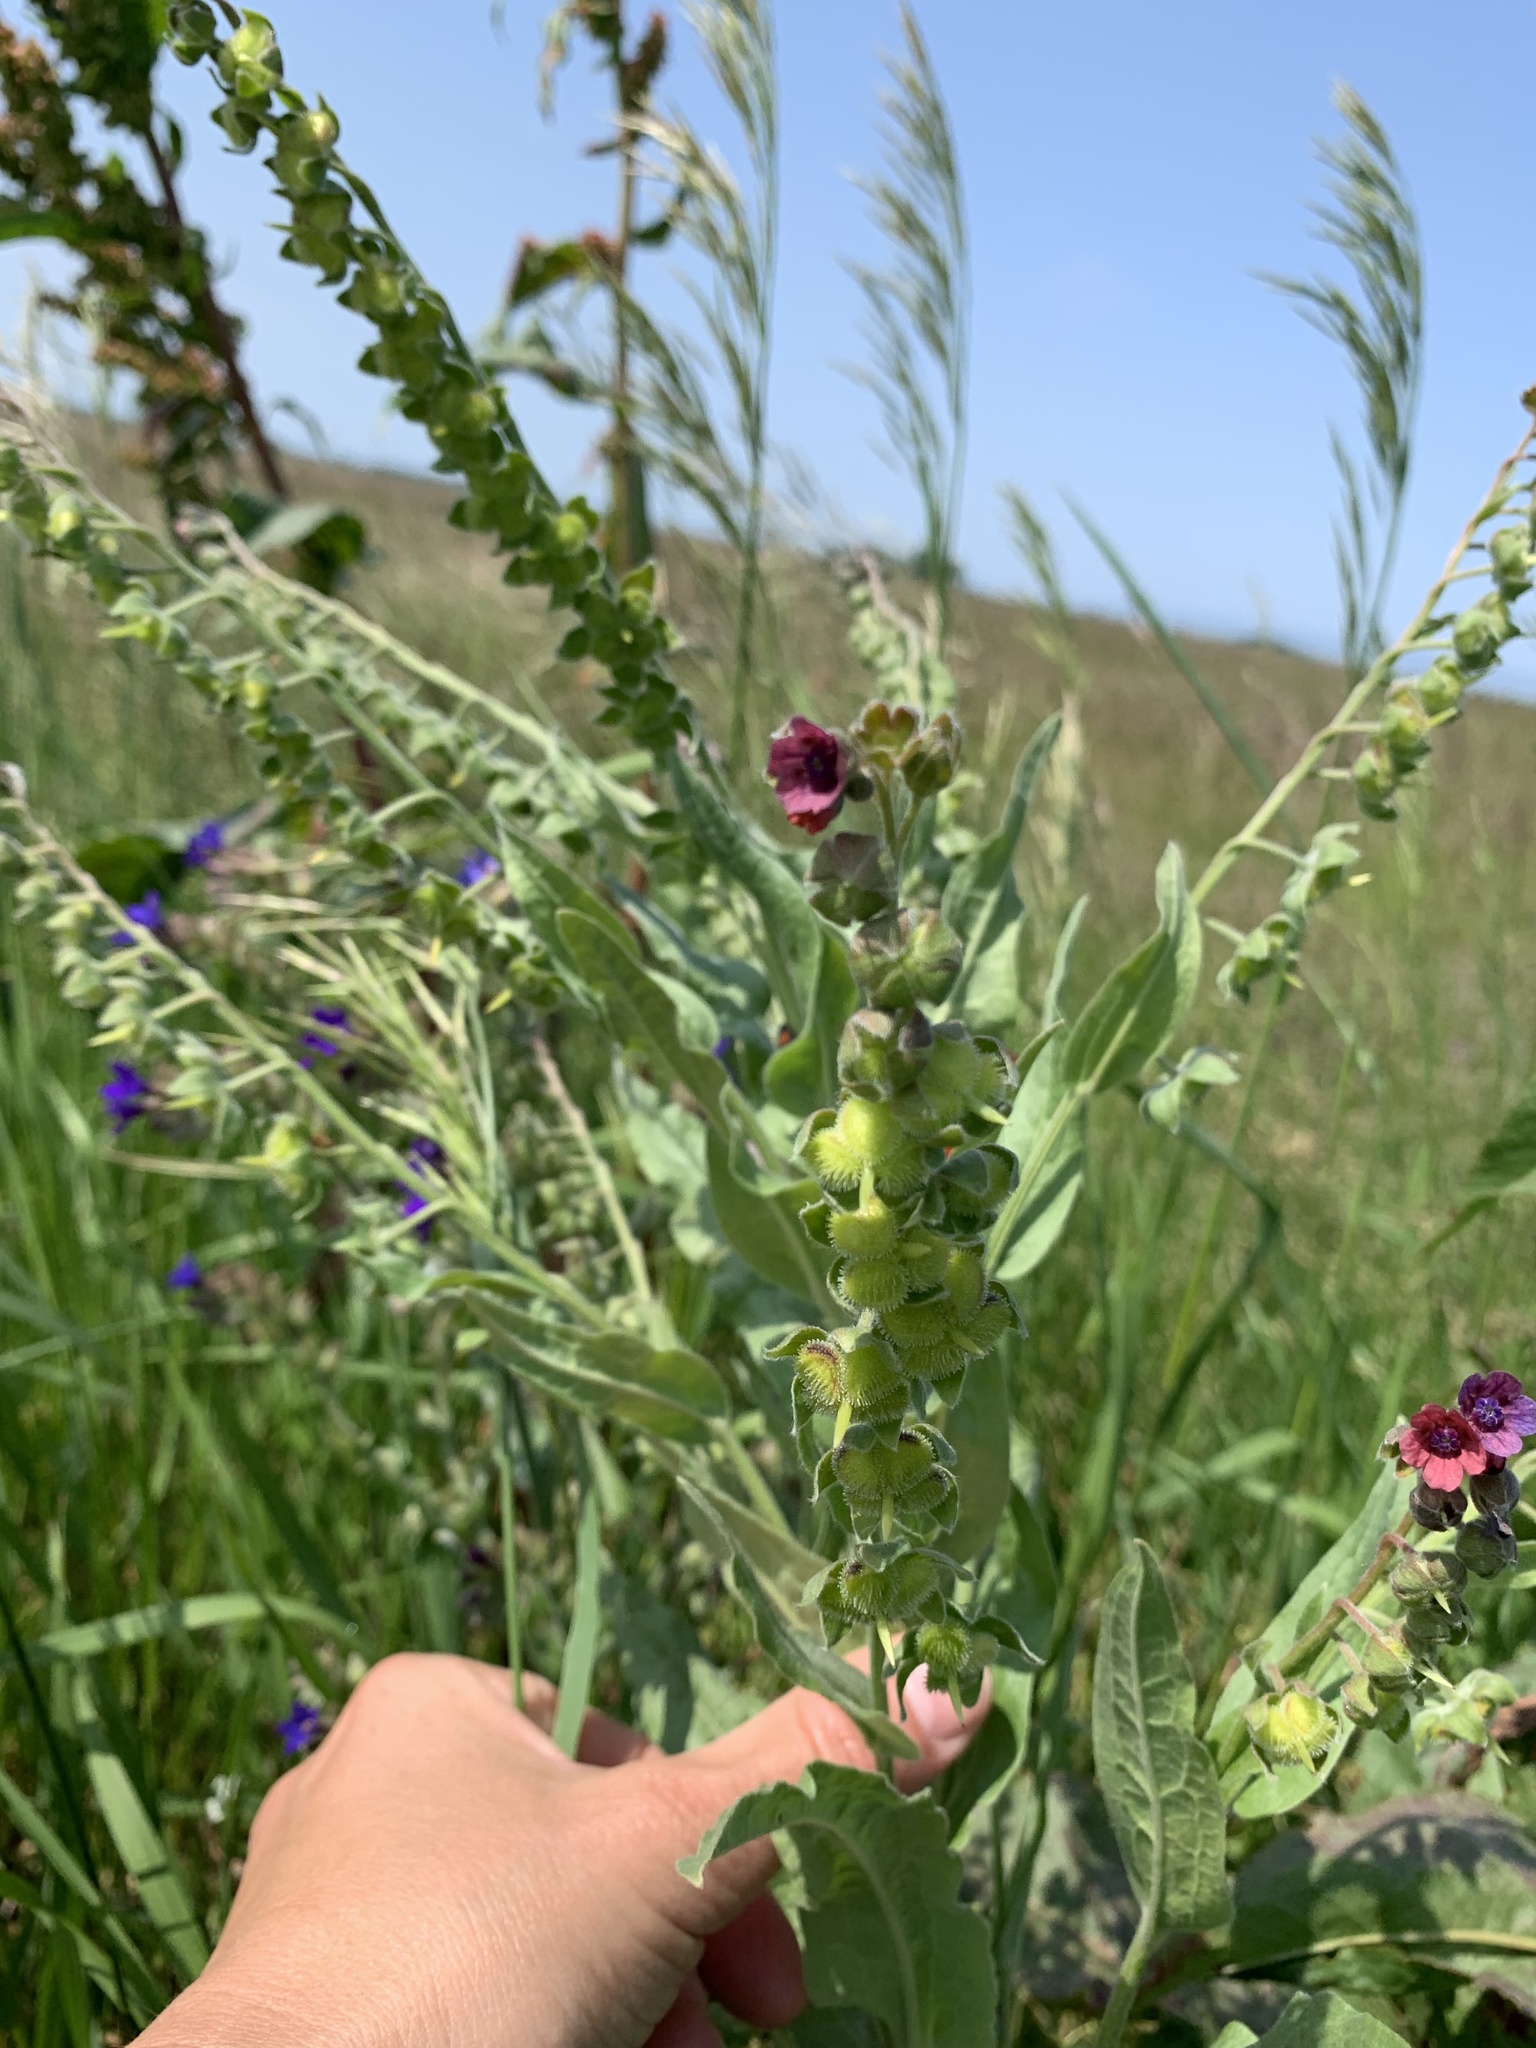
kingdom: Plantae
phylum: Tracheophyta
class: Magnoliopsida
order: Boraginales
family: Boraginaceae
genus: Cynoglossum
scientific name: Cynoglossum officinale
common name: Hound's-tongue
